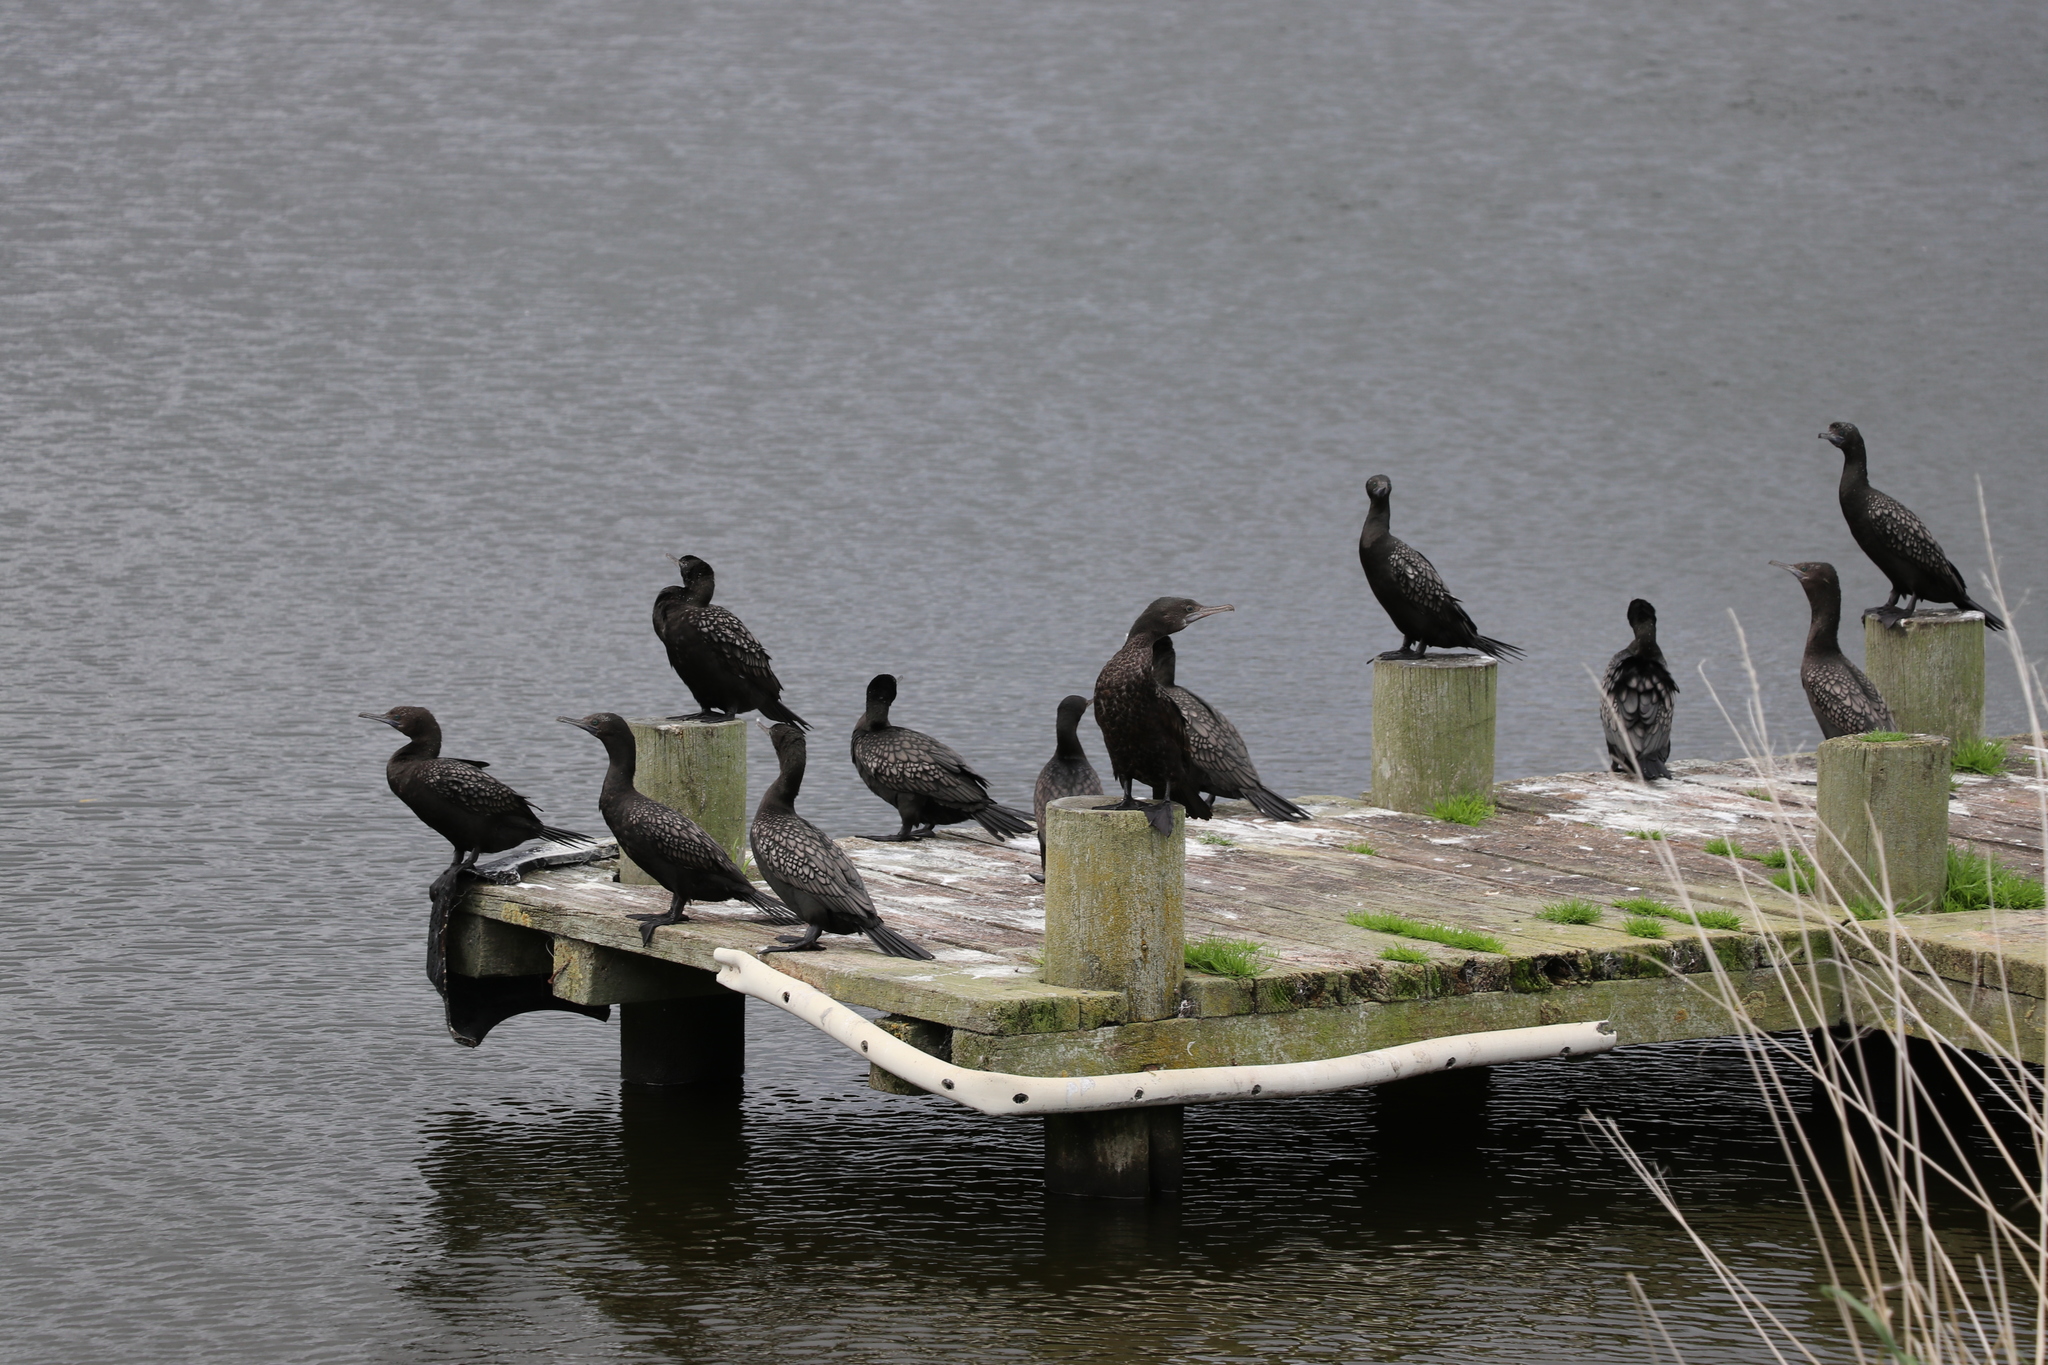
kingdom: Animalia
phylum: Chordata
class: Aves
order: Suliformes
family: Phalacrocoracidae
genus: Phalacrocorax
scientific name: Phalacrocorax sulcirostris
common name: Little black cormorant
